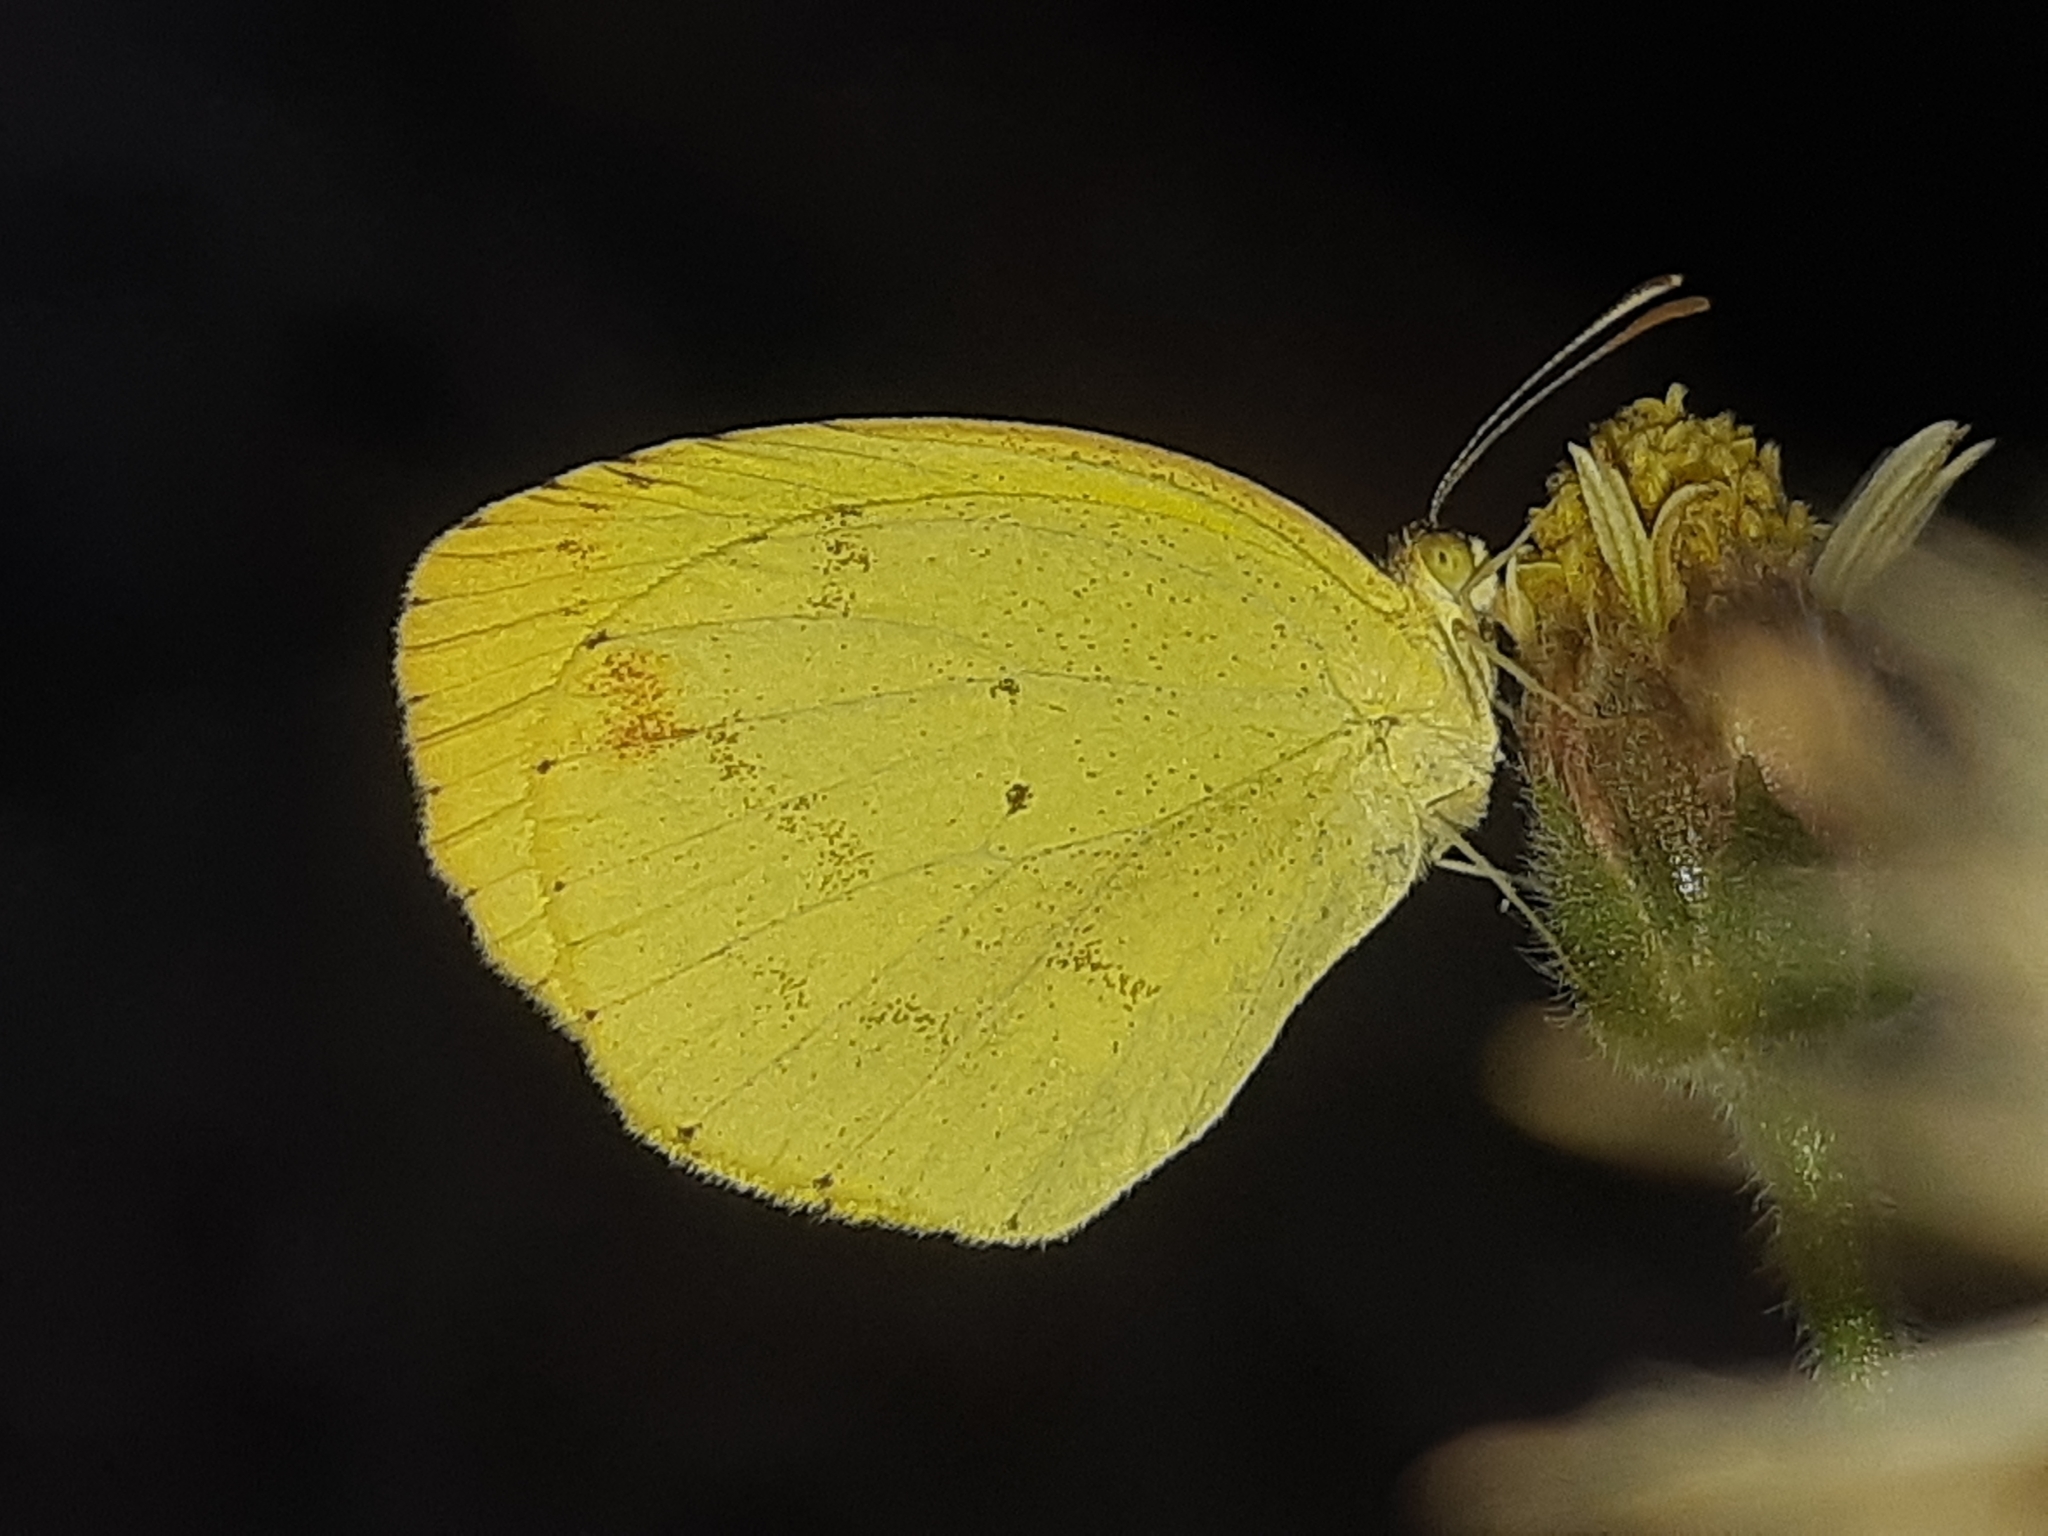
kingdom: Animalia
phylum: Arthropoda
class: Insecta
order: Lepidoptera
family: Pieridae
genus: Pyrisitia
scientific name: Pyrisitia nise
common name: Mimosa yellow
